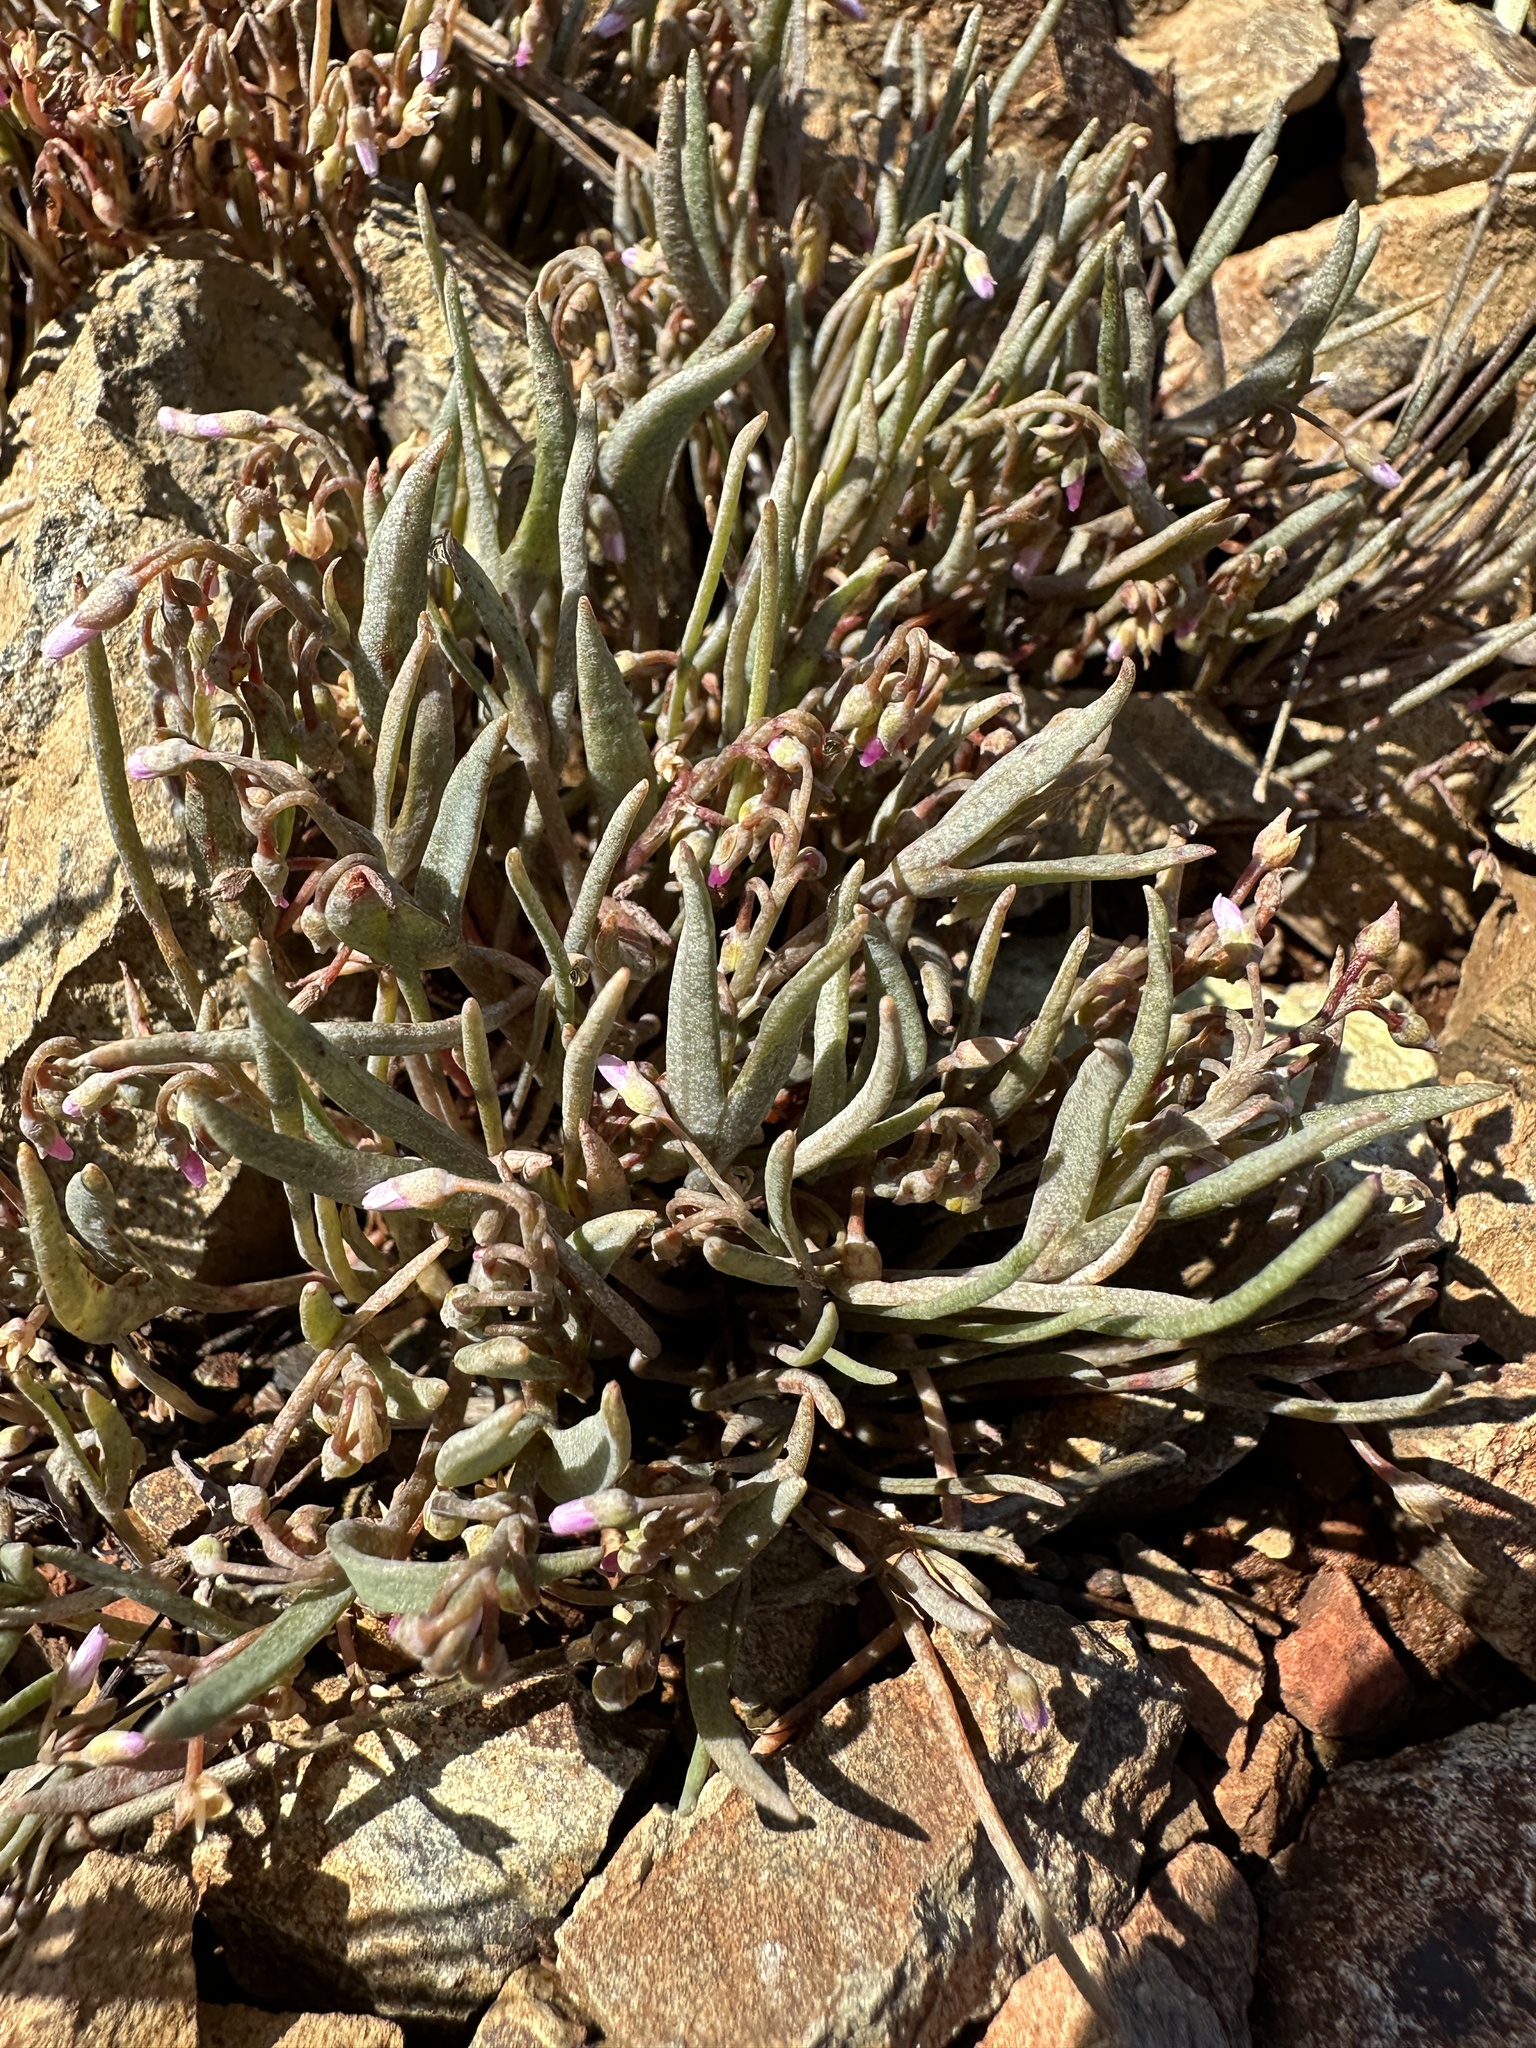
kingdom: Plantae
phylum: Tracheophyta
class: Magnoliopsida
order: Caryophyllales
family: Montiaceae
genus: Claytonia
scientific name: Claytonia exigua
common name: Pale spring beauty
